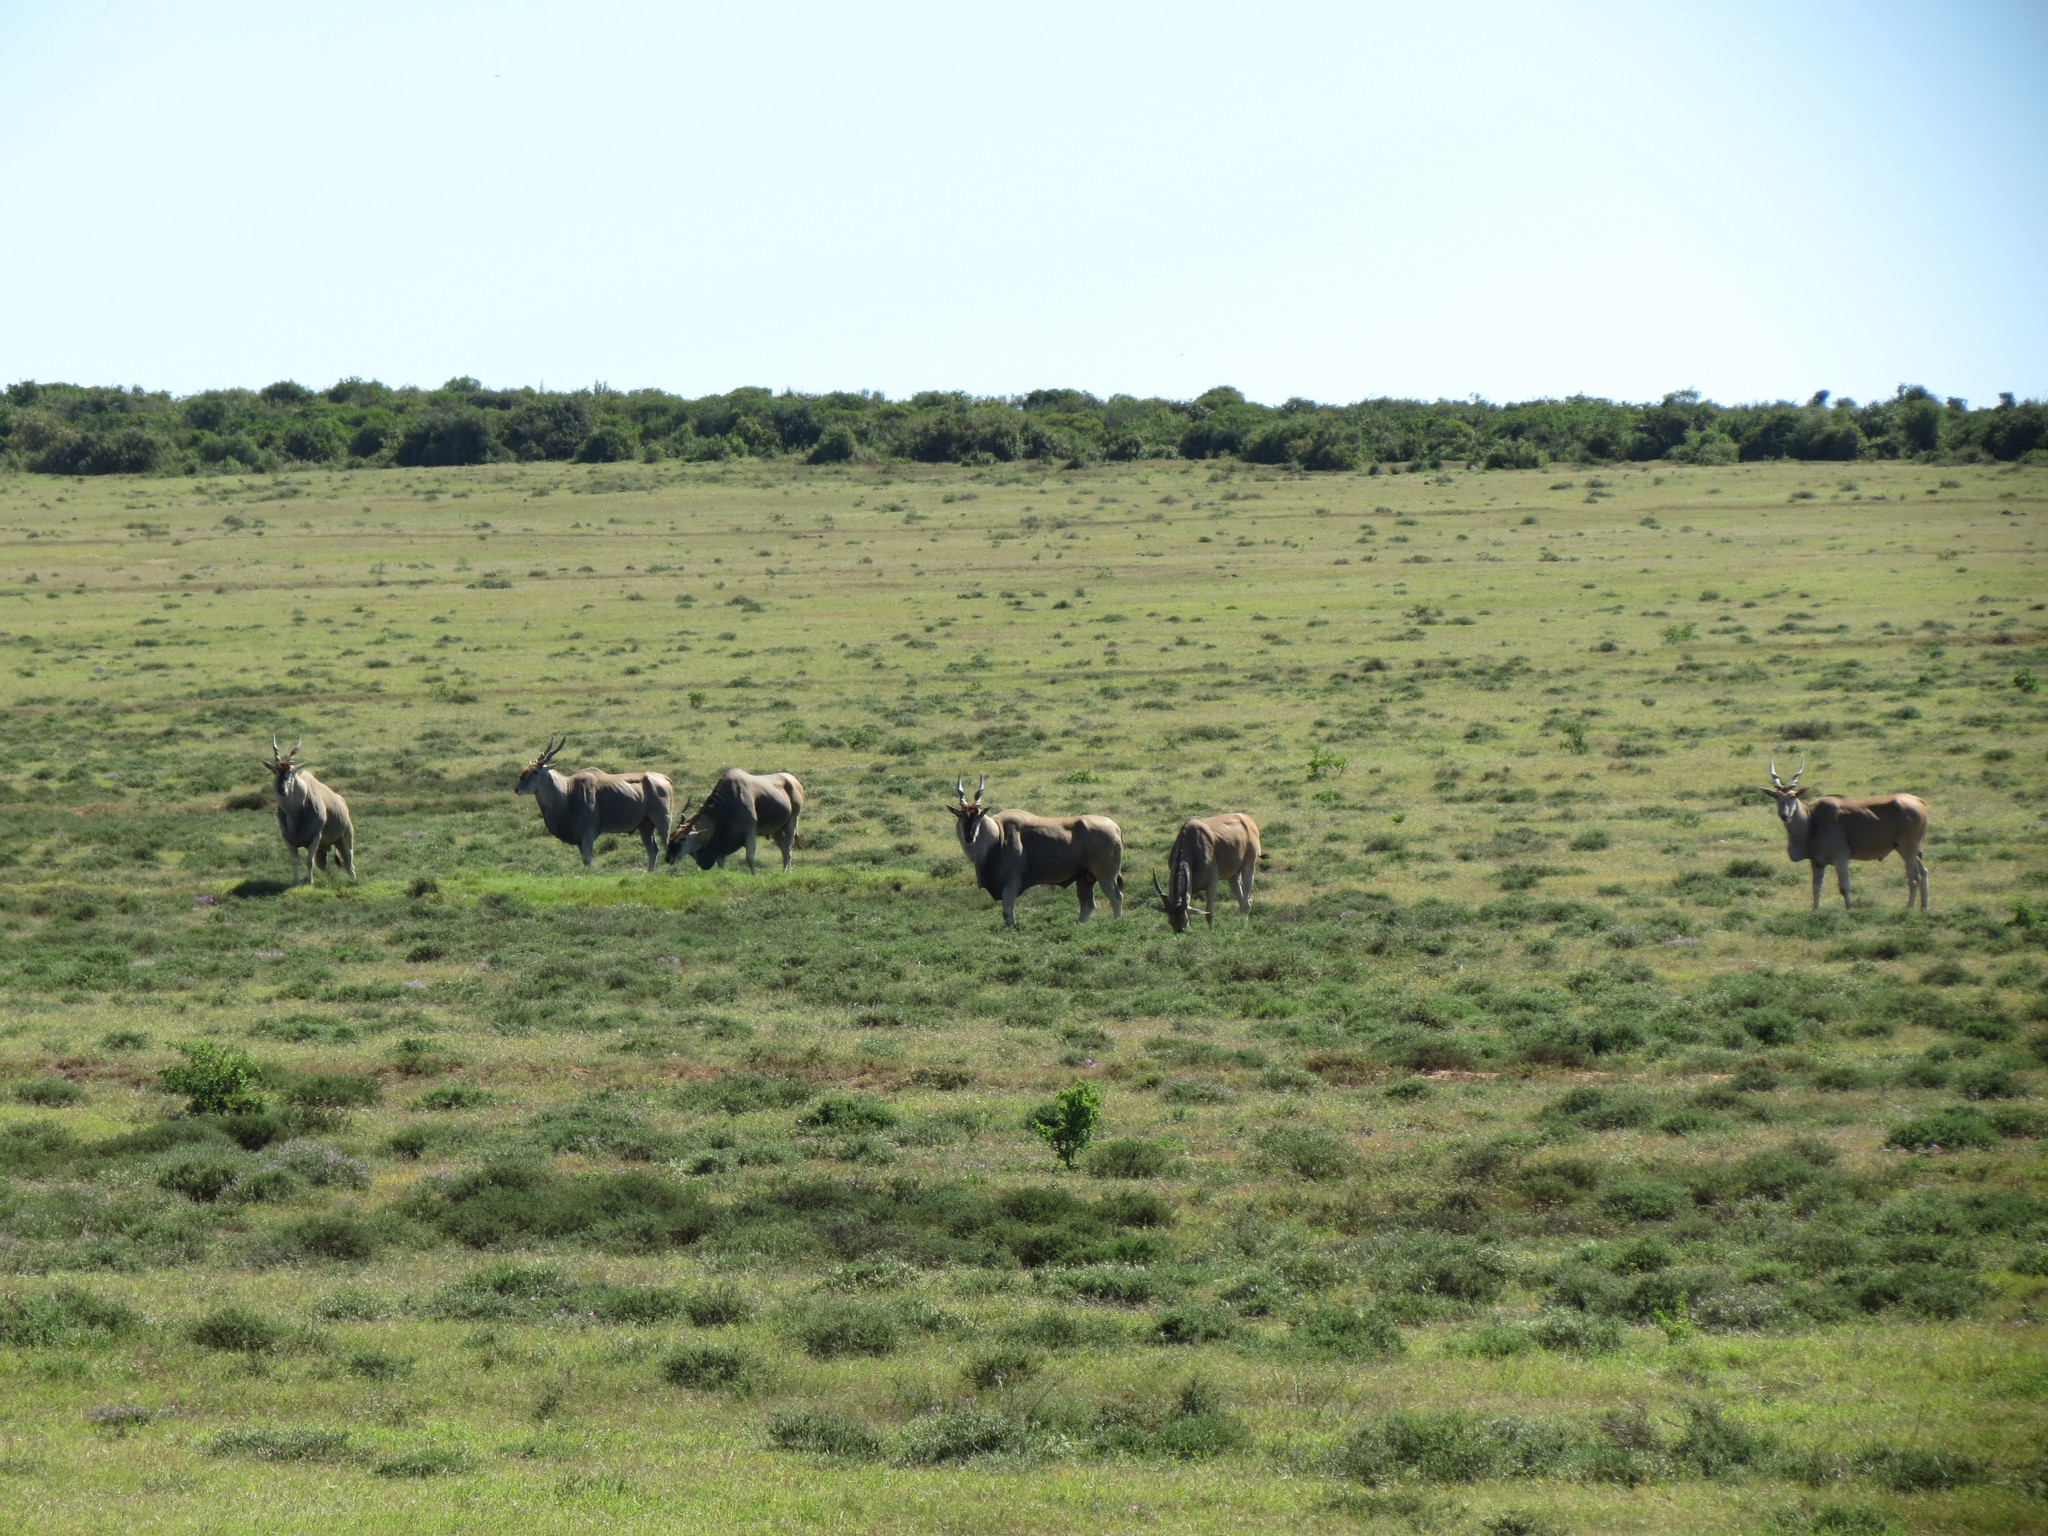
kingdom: Animalia
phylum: Chordata
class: Mammalia
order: Artiodactyla
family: Bovidae
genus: Taurotragus
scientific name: Taurotragus oryx
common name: Common eland
